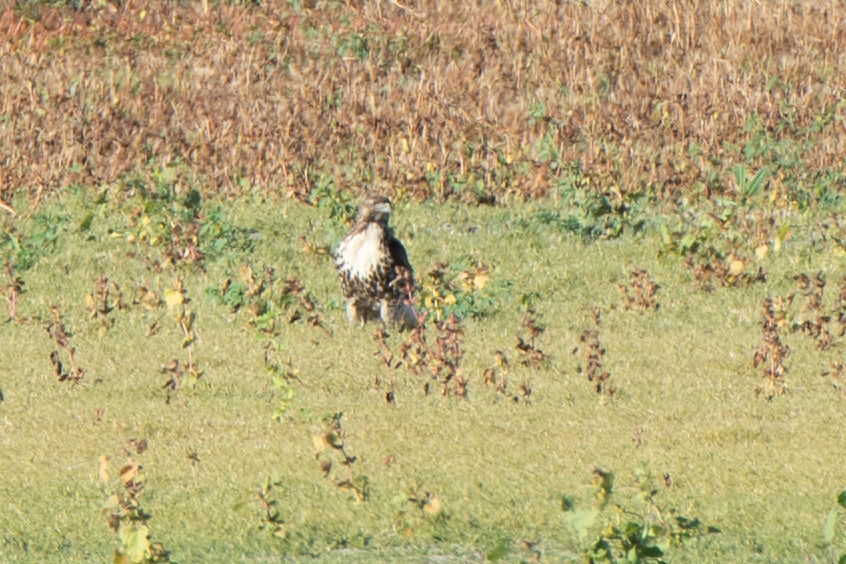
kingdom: Animalia
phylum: Chordata
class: Aves
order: Accipitriformes
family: Accipitridae
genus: Buteo
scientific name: Buteo jamaicensis
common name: Red-tailed hawk
